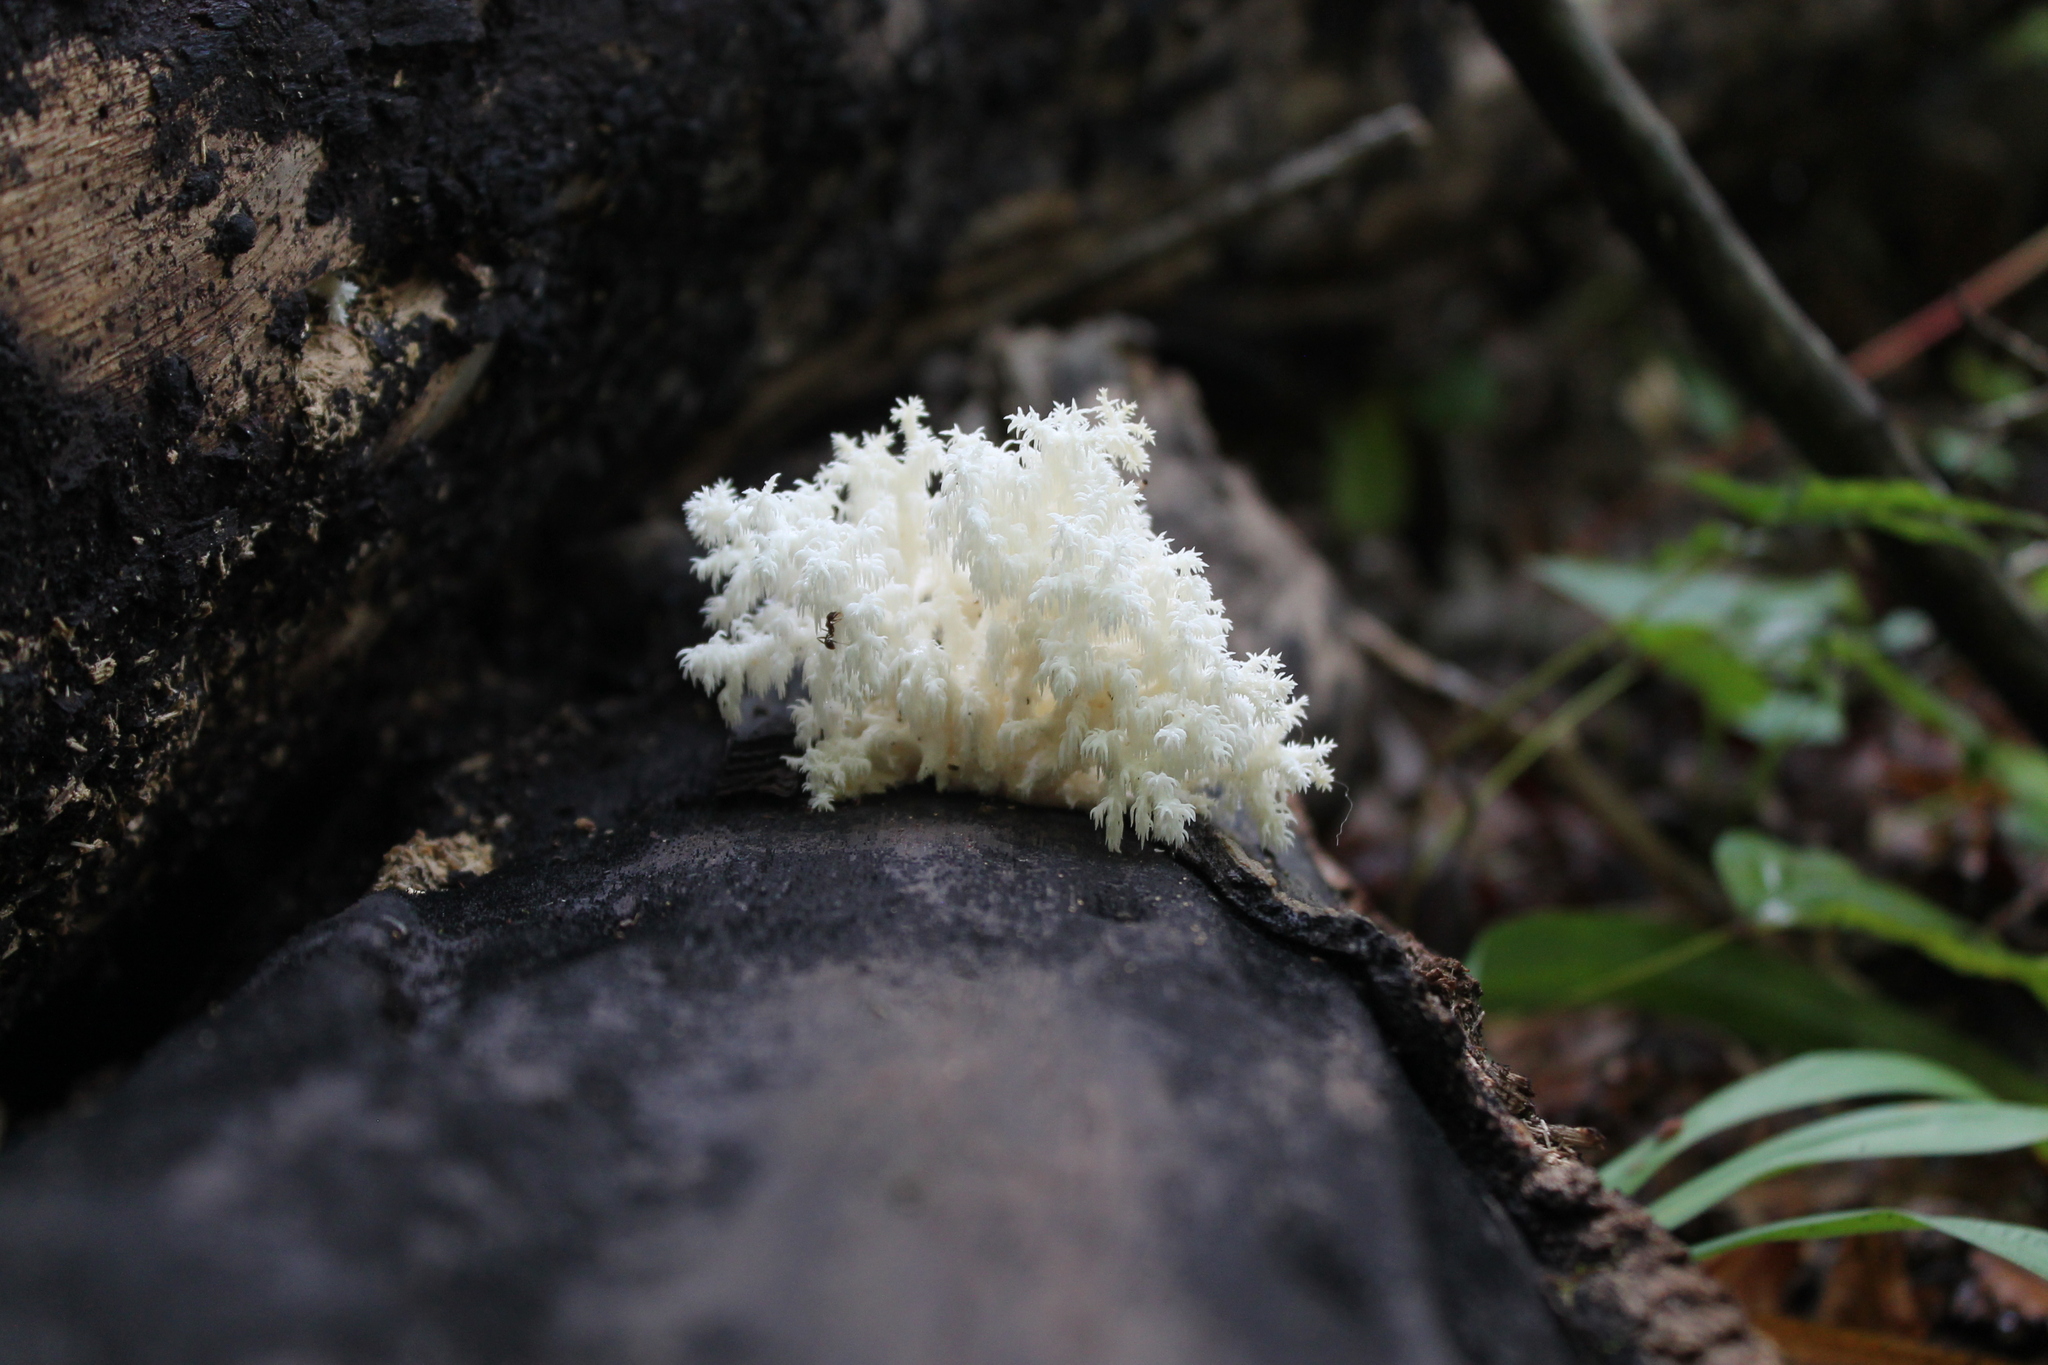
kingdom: Fungi
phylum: Basidiomycota
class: Agaricomycetes
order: Russulales
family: Hericiaceae
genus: Hericium
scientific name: Hericium coralloides
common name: Coral tooth
